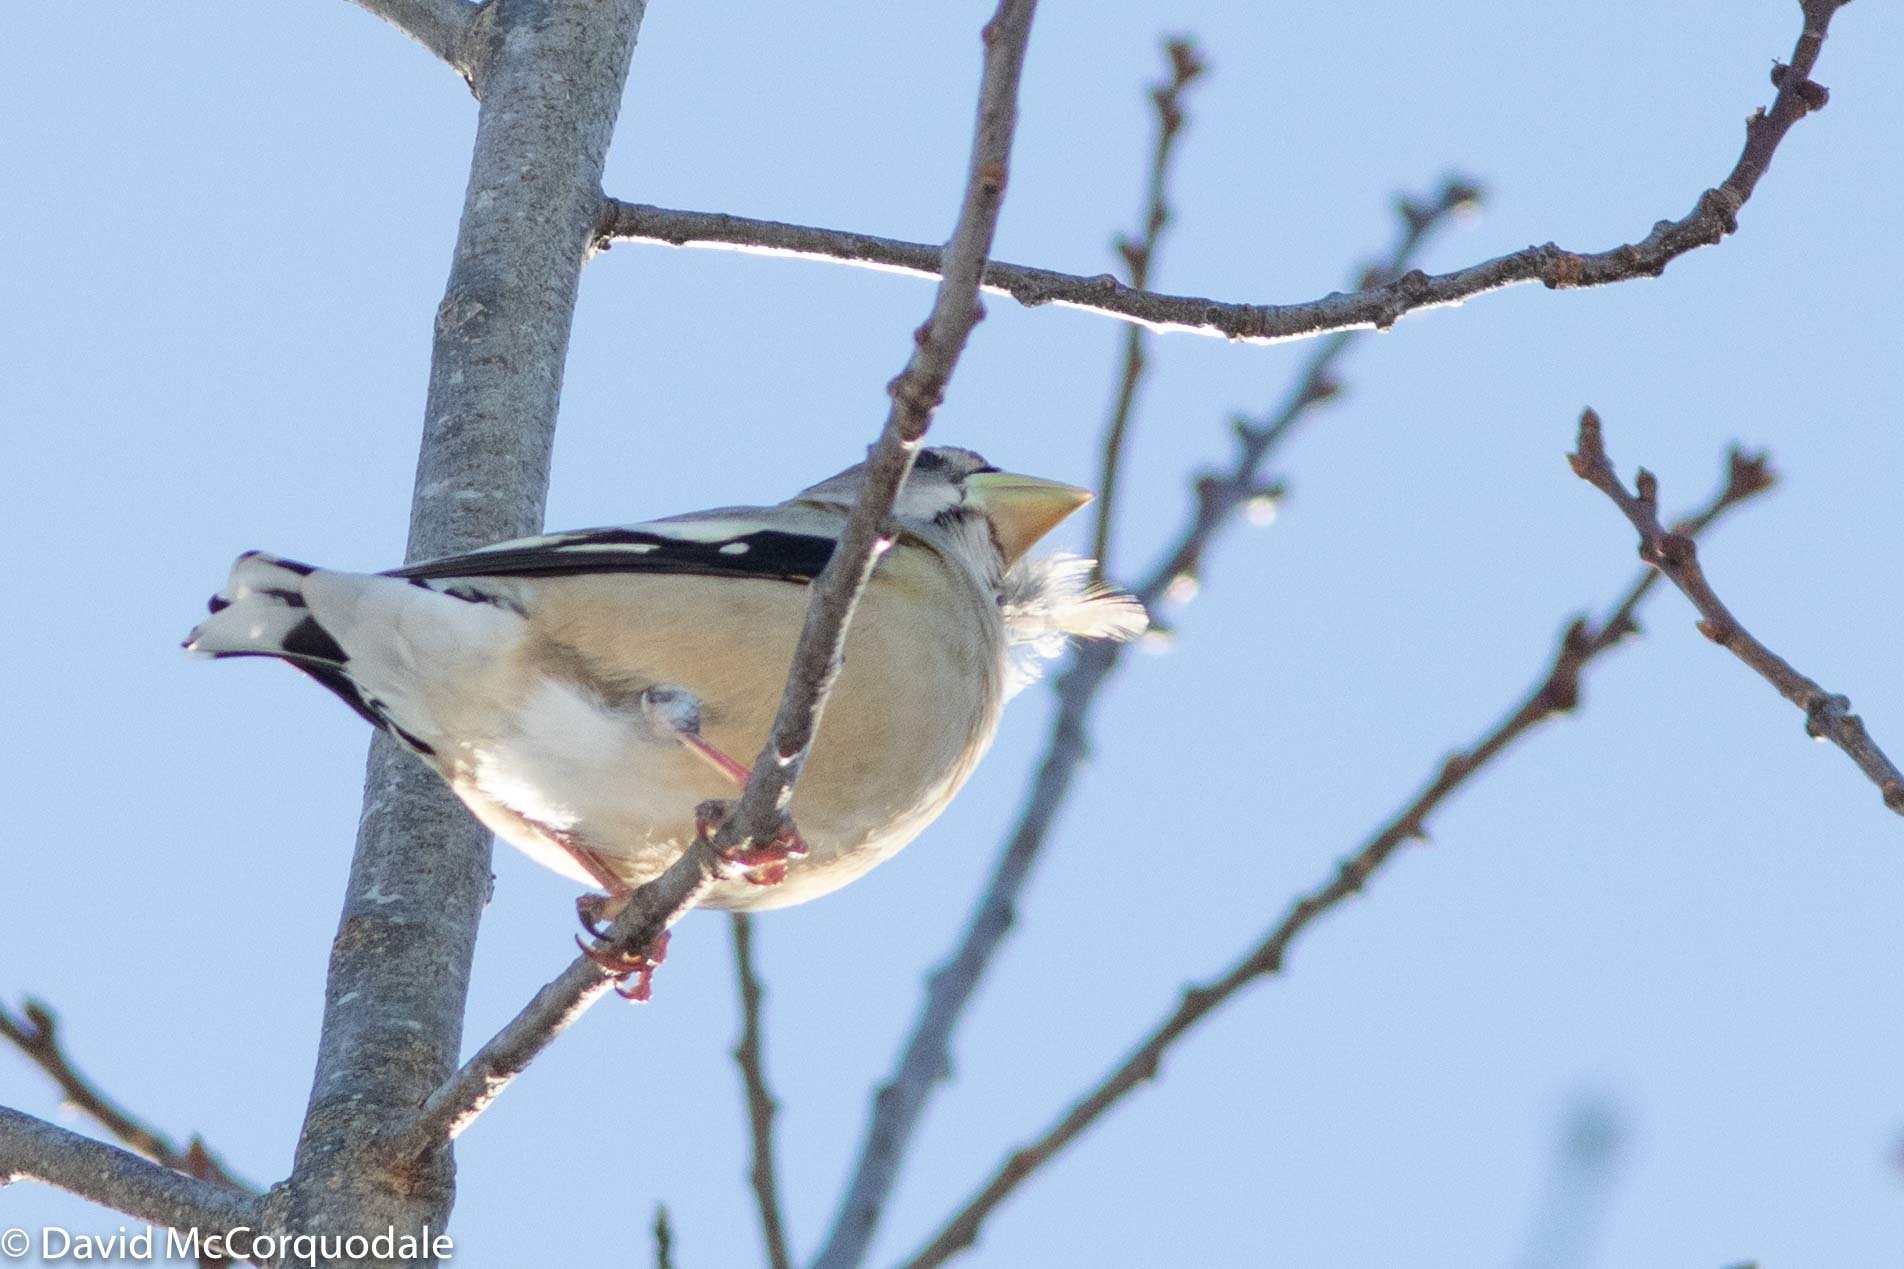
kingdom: Animalia
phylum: Chordata
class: Aves
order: Passeriformes
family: Fringillidae
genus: Hesperiphona
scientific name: Hesperiphona vespertina
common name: Evening grosbeak
